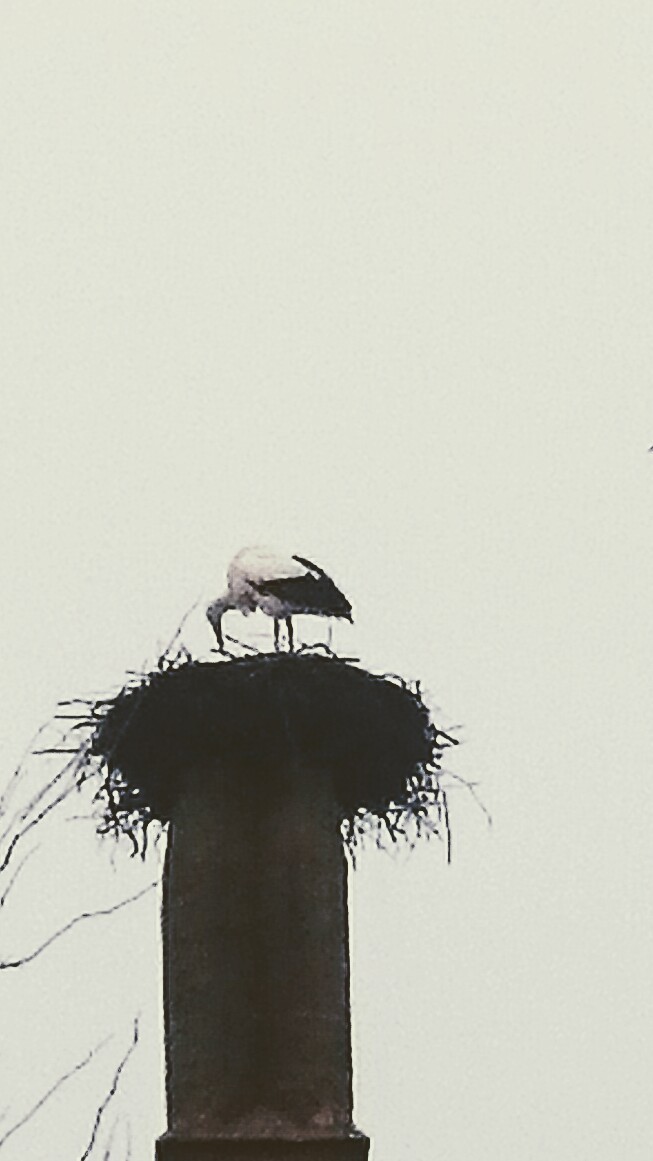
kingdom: Animalia
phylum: Chordata
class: Aves
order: Ciconiiformes
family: Ciconiidae
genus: Ciconia
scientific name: Ciconia ciconia
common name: White stork
